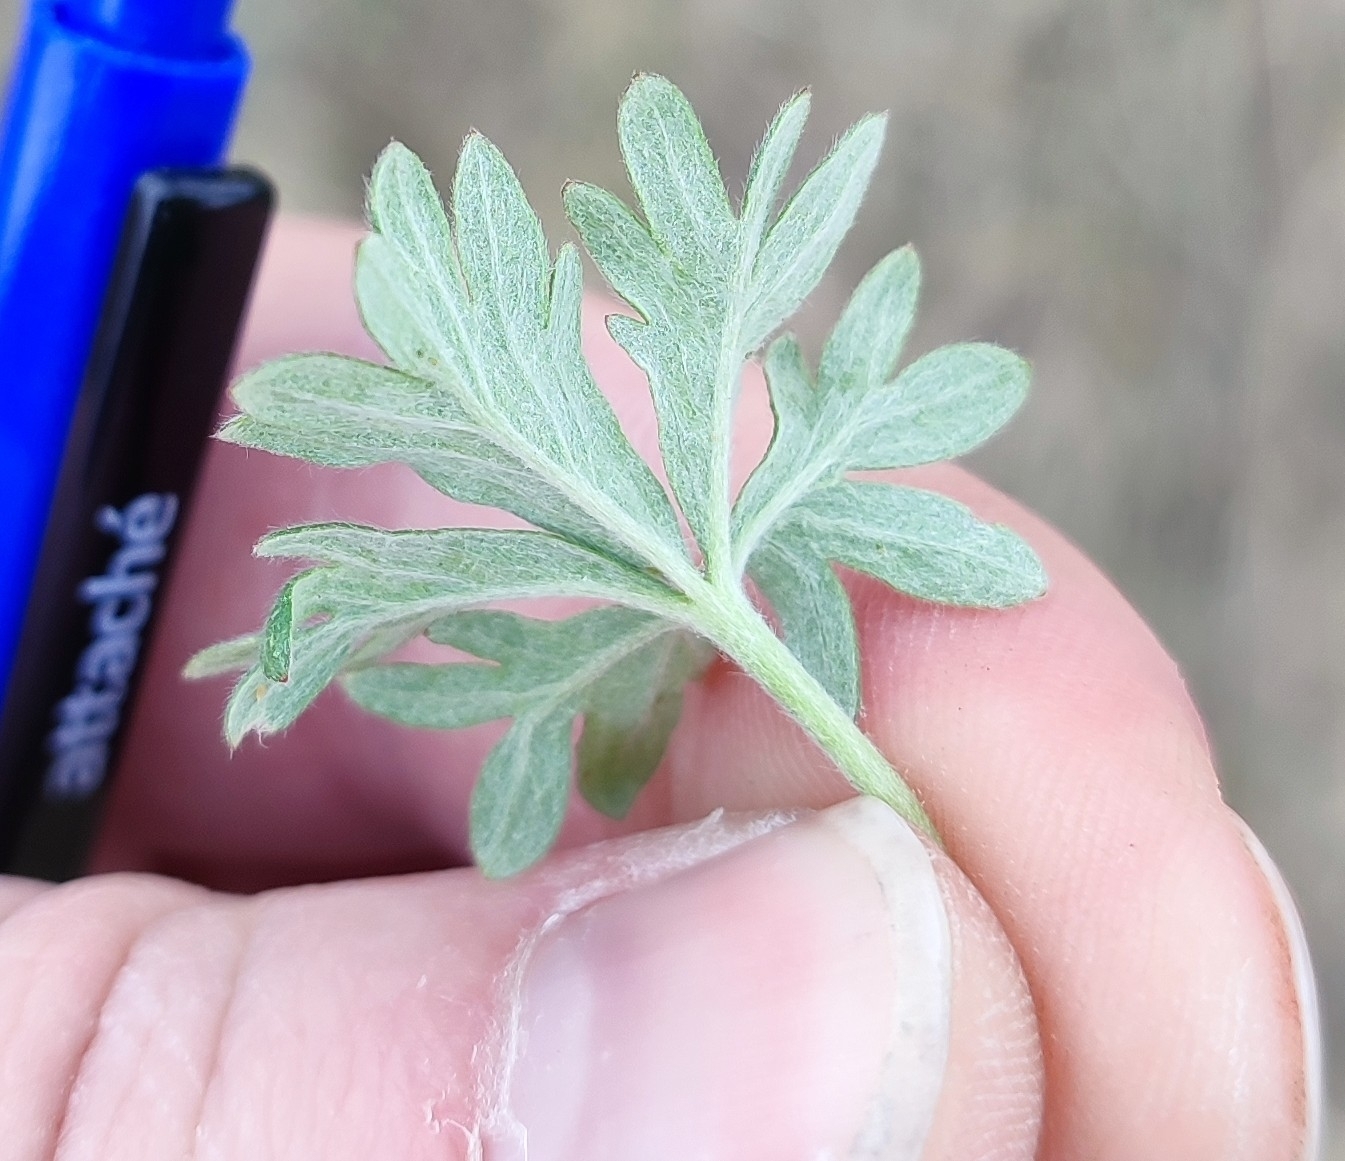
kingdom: Plantae
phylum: Tracheophyta
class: Magnoliopsida
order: Rosales
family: Rosaceae
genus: Potentilla
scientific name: Potentilla argentea
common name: Hoary cinquefoil
